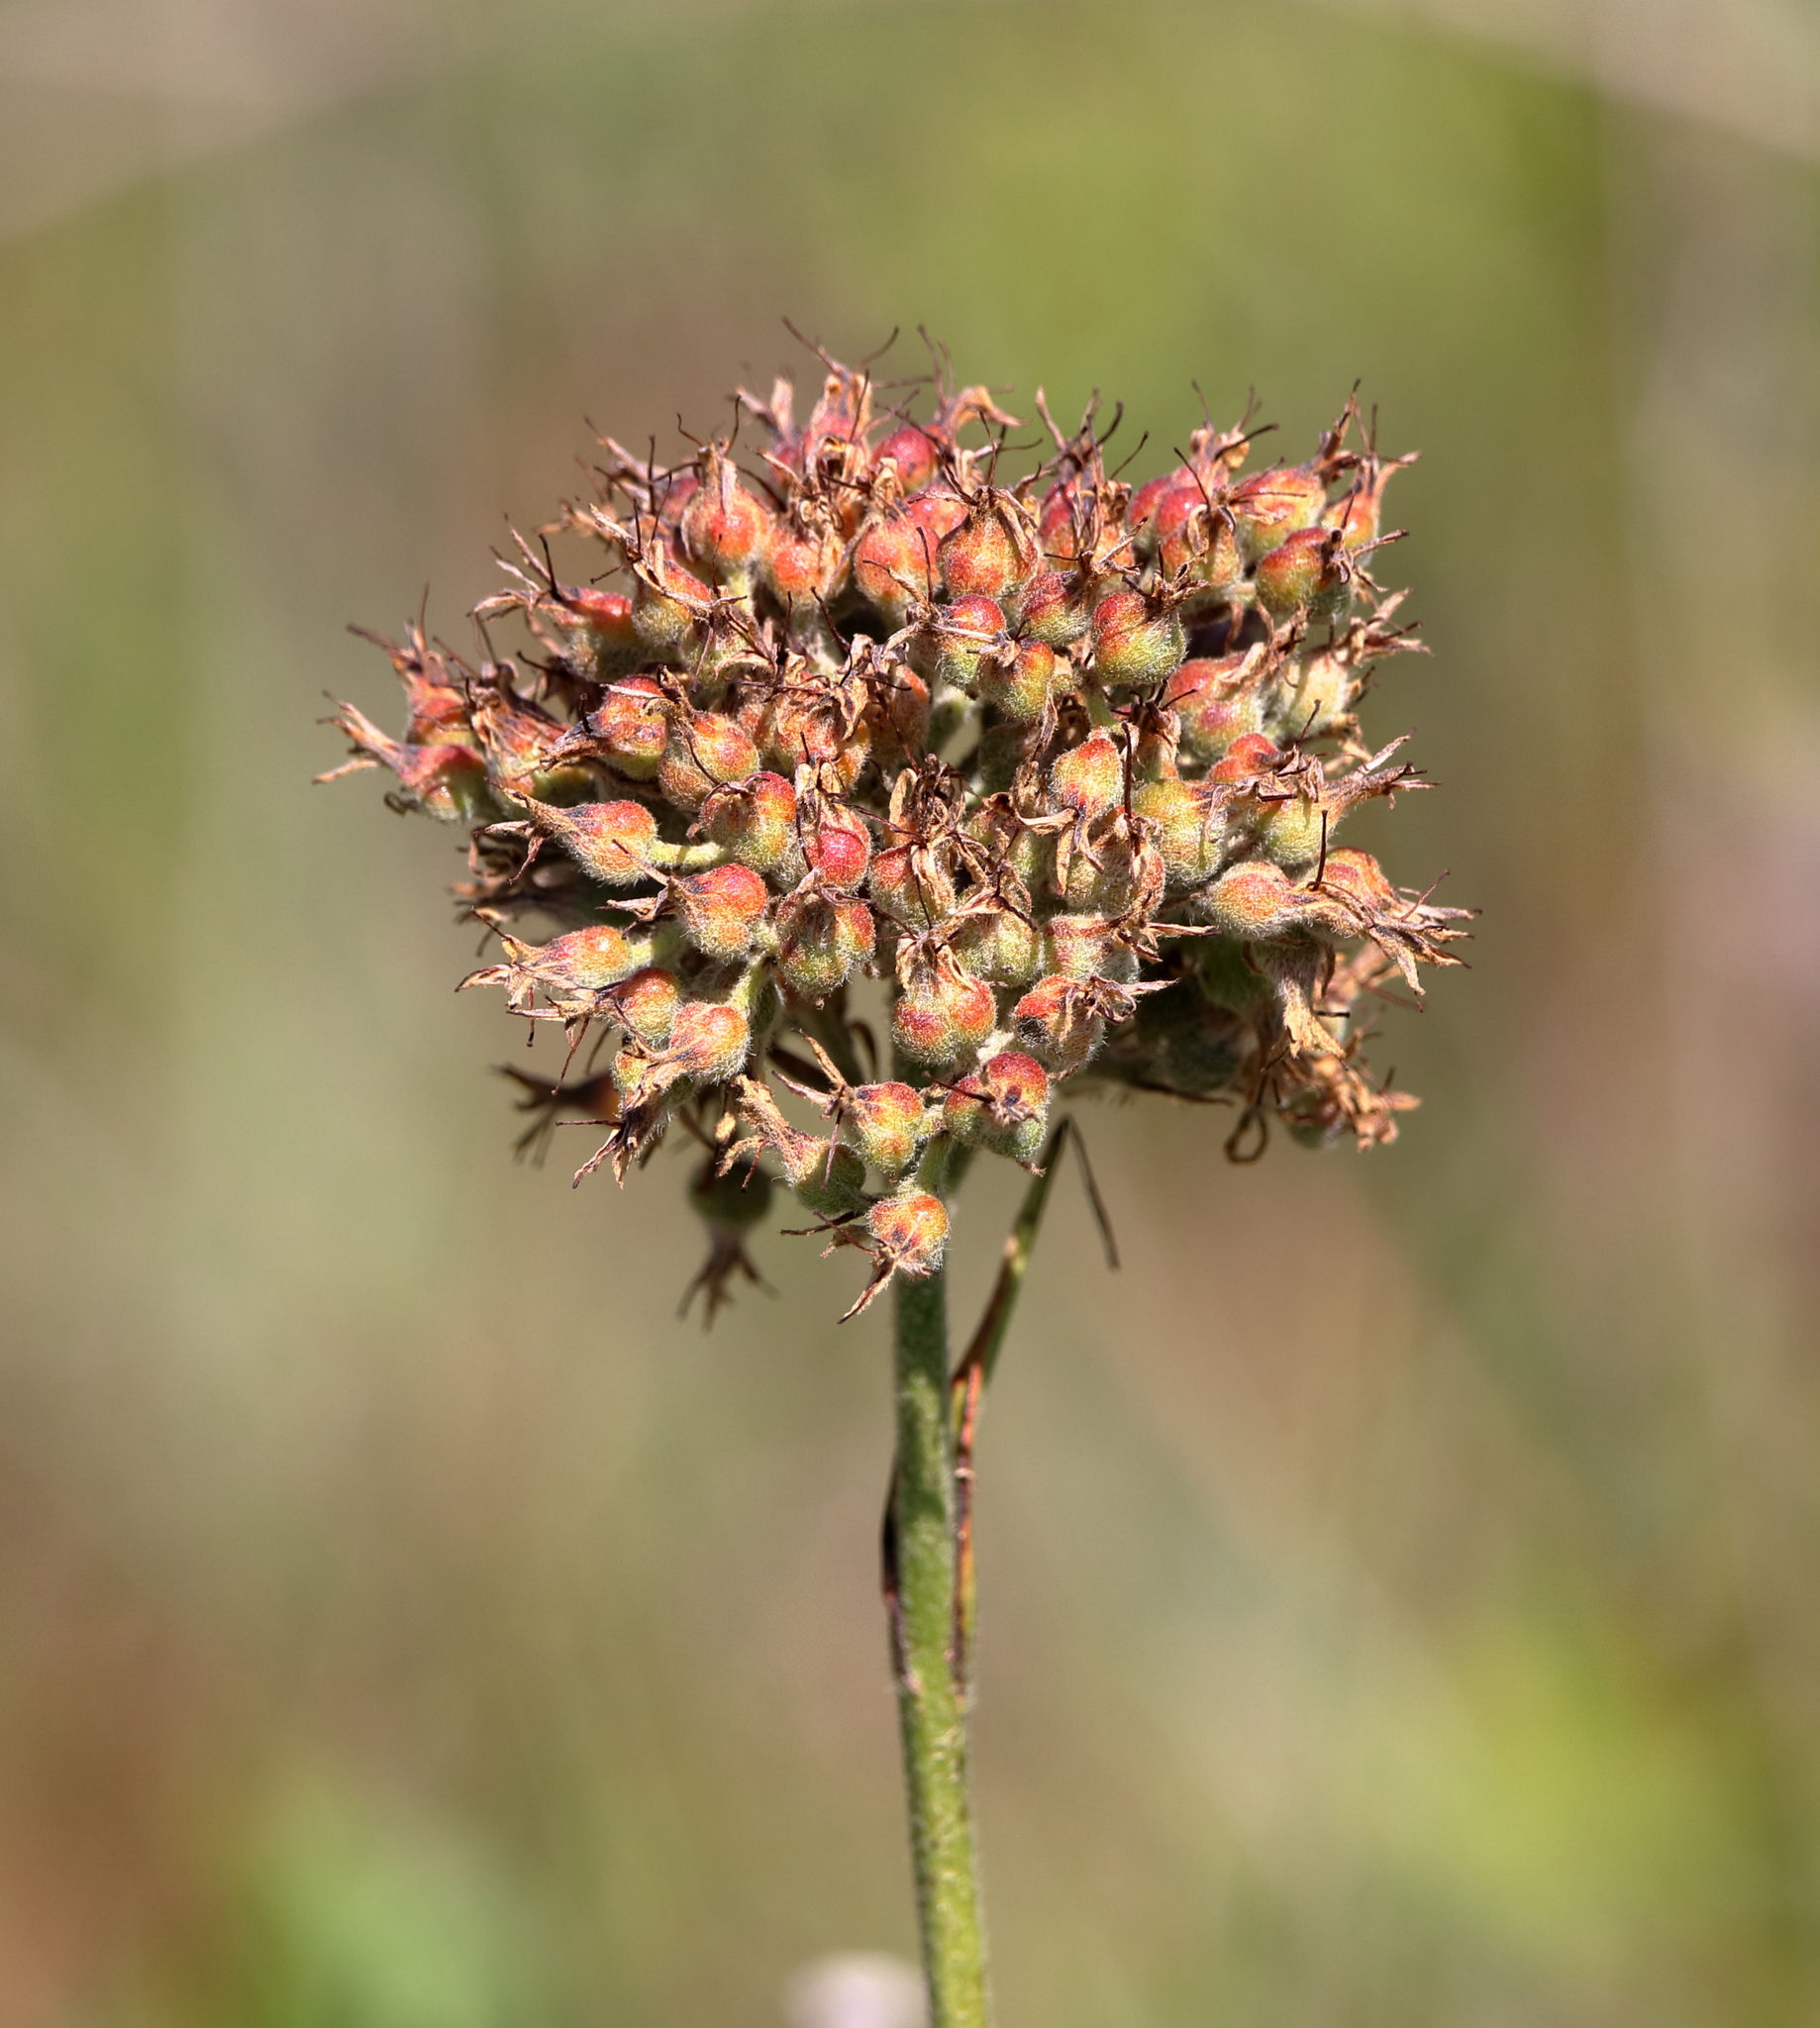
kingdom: Plantae
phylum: Tracheophyta
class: Liliopsida
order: Commelinales
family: Haemodoraceae
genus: Lachnanthes
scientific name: Lachnanthes caroliana
